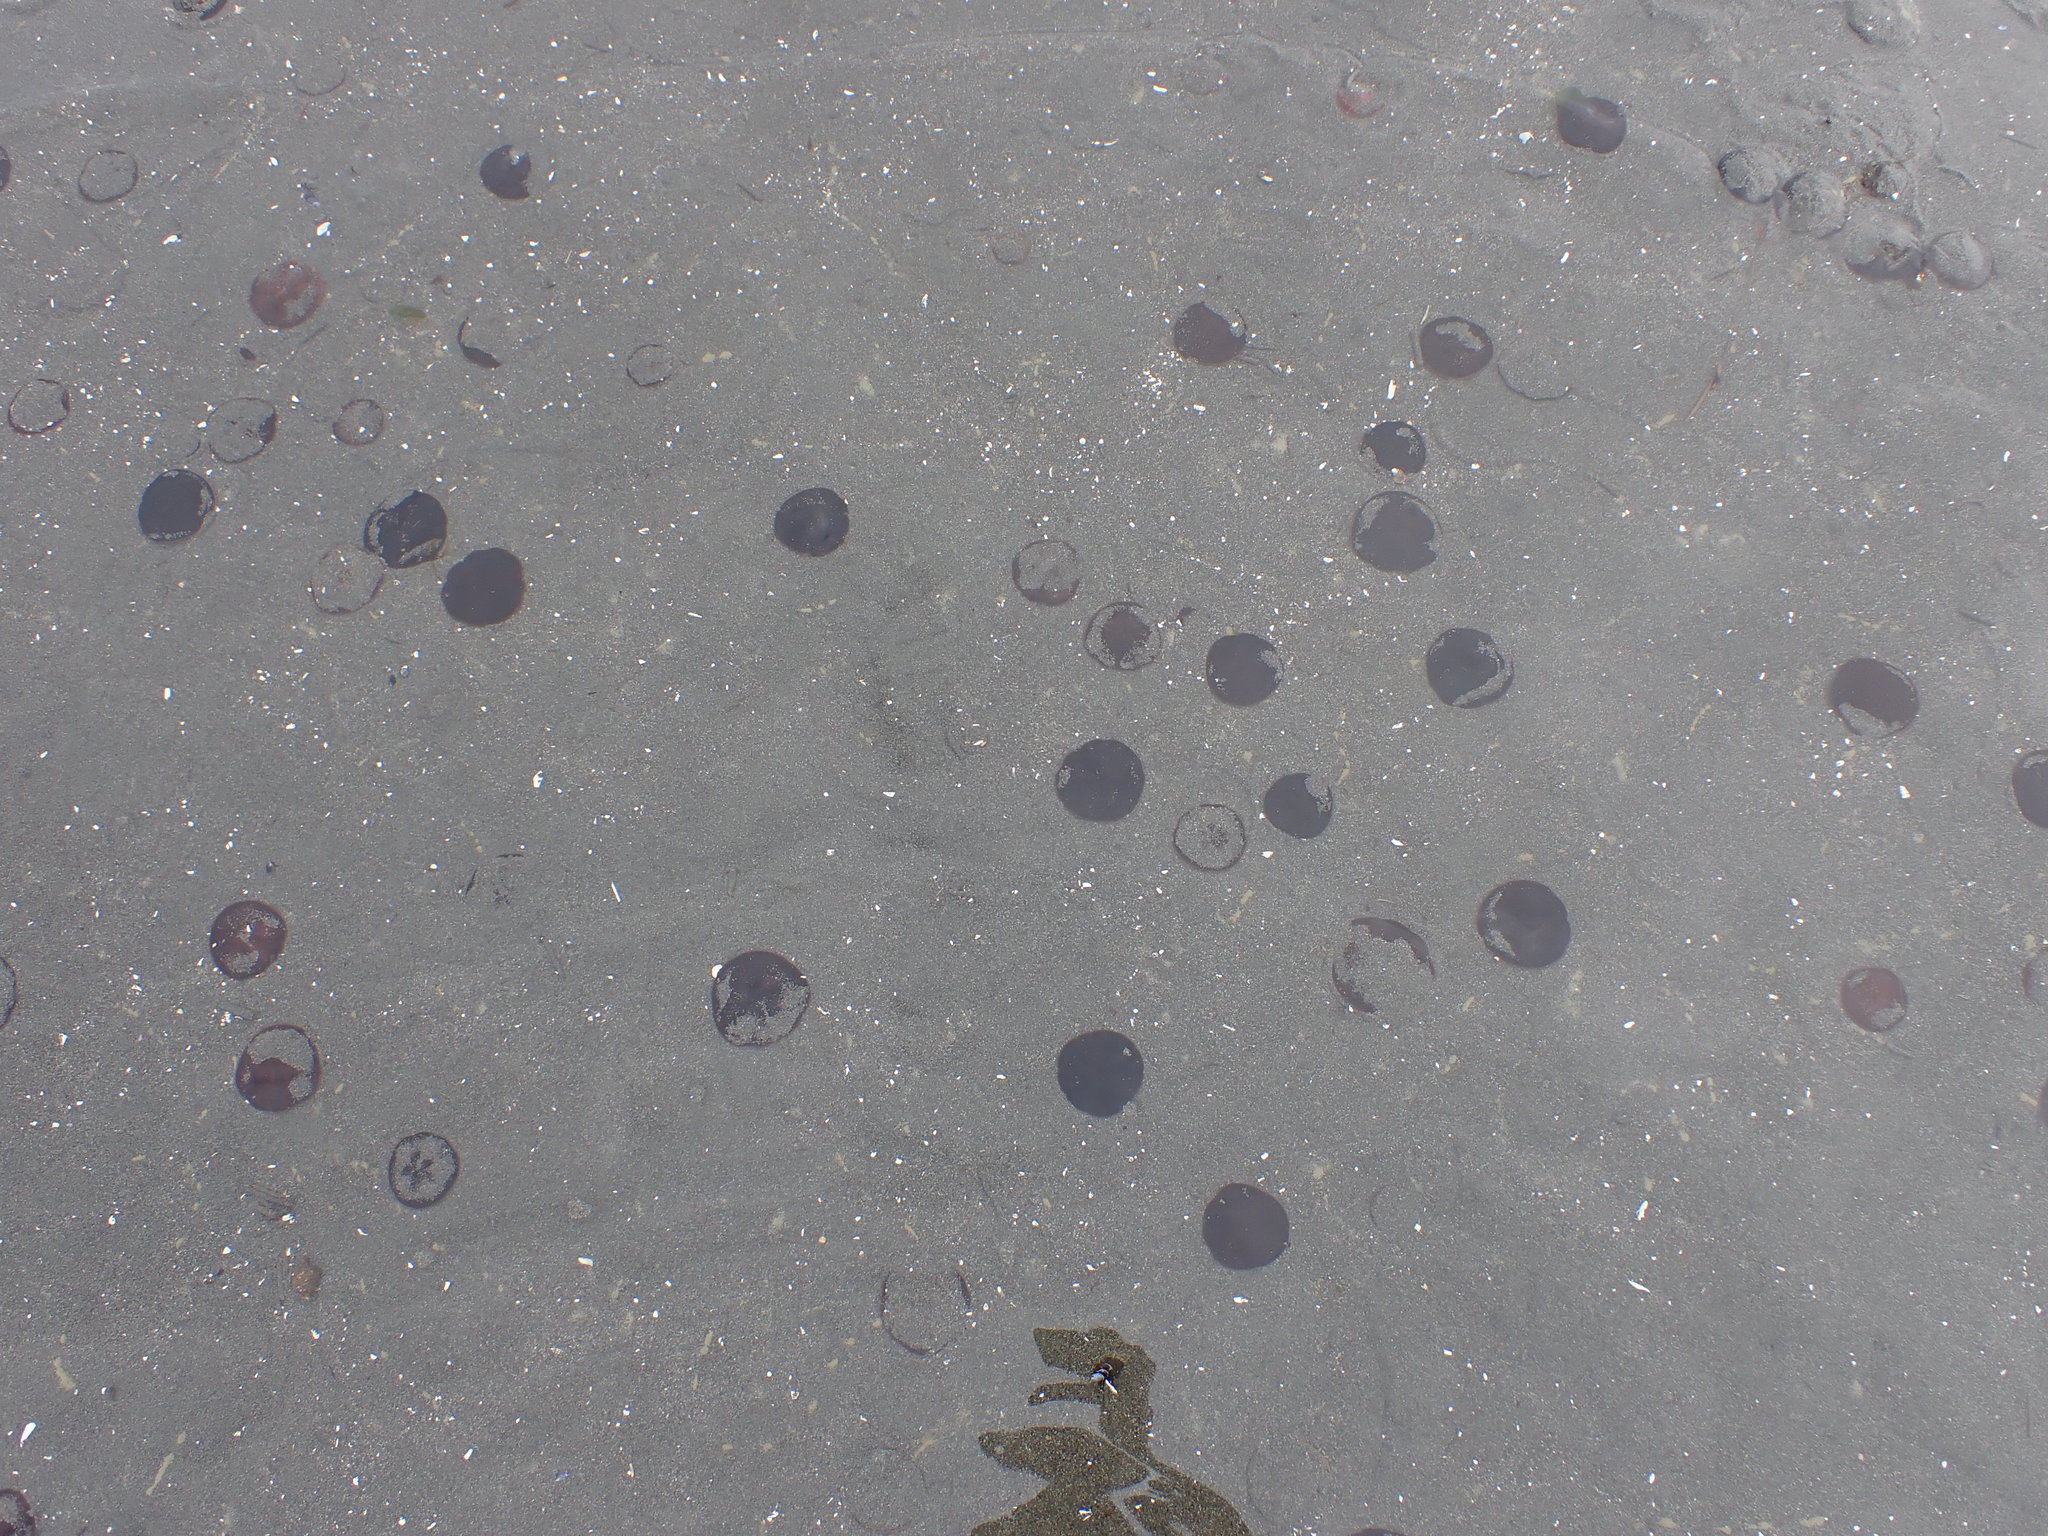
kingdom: Animalia
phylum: Echinodermata
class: Echinoidea
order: Echinolampadacea
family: Echinarachniidae
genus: Echinarachnius
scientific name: Echinarachnius parma
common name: Common sand dollar
